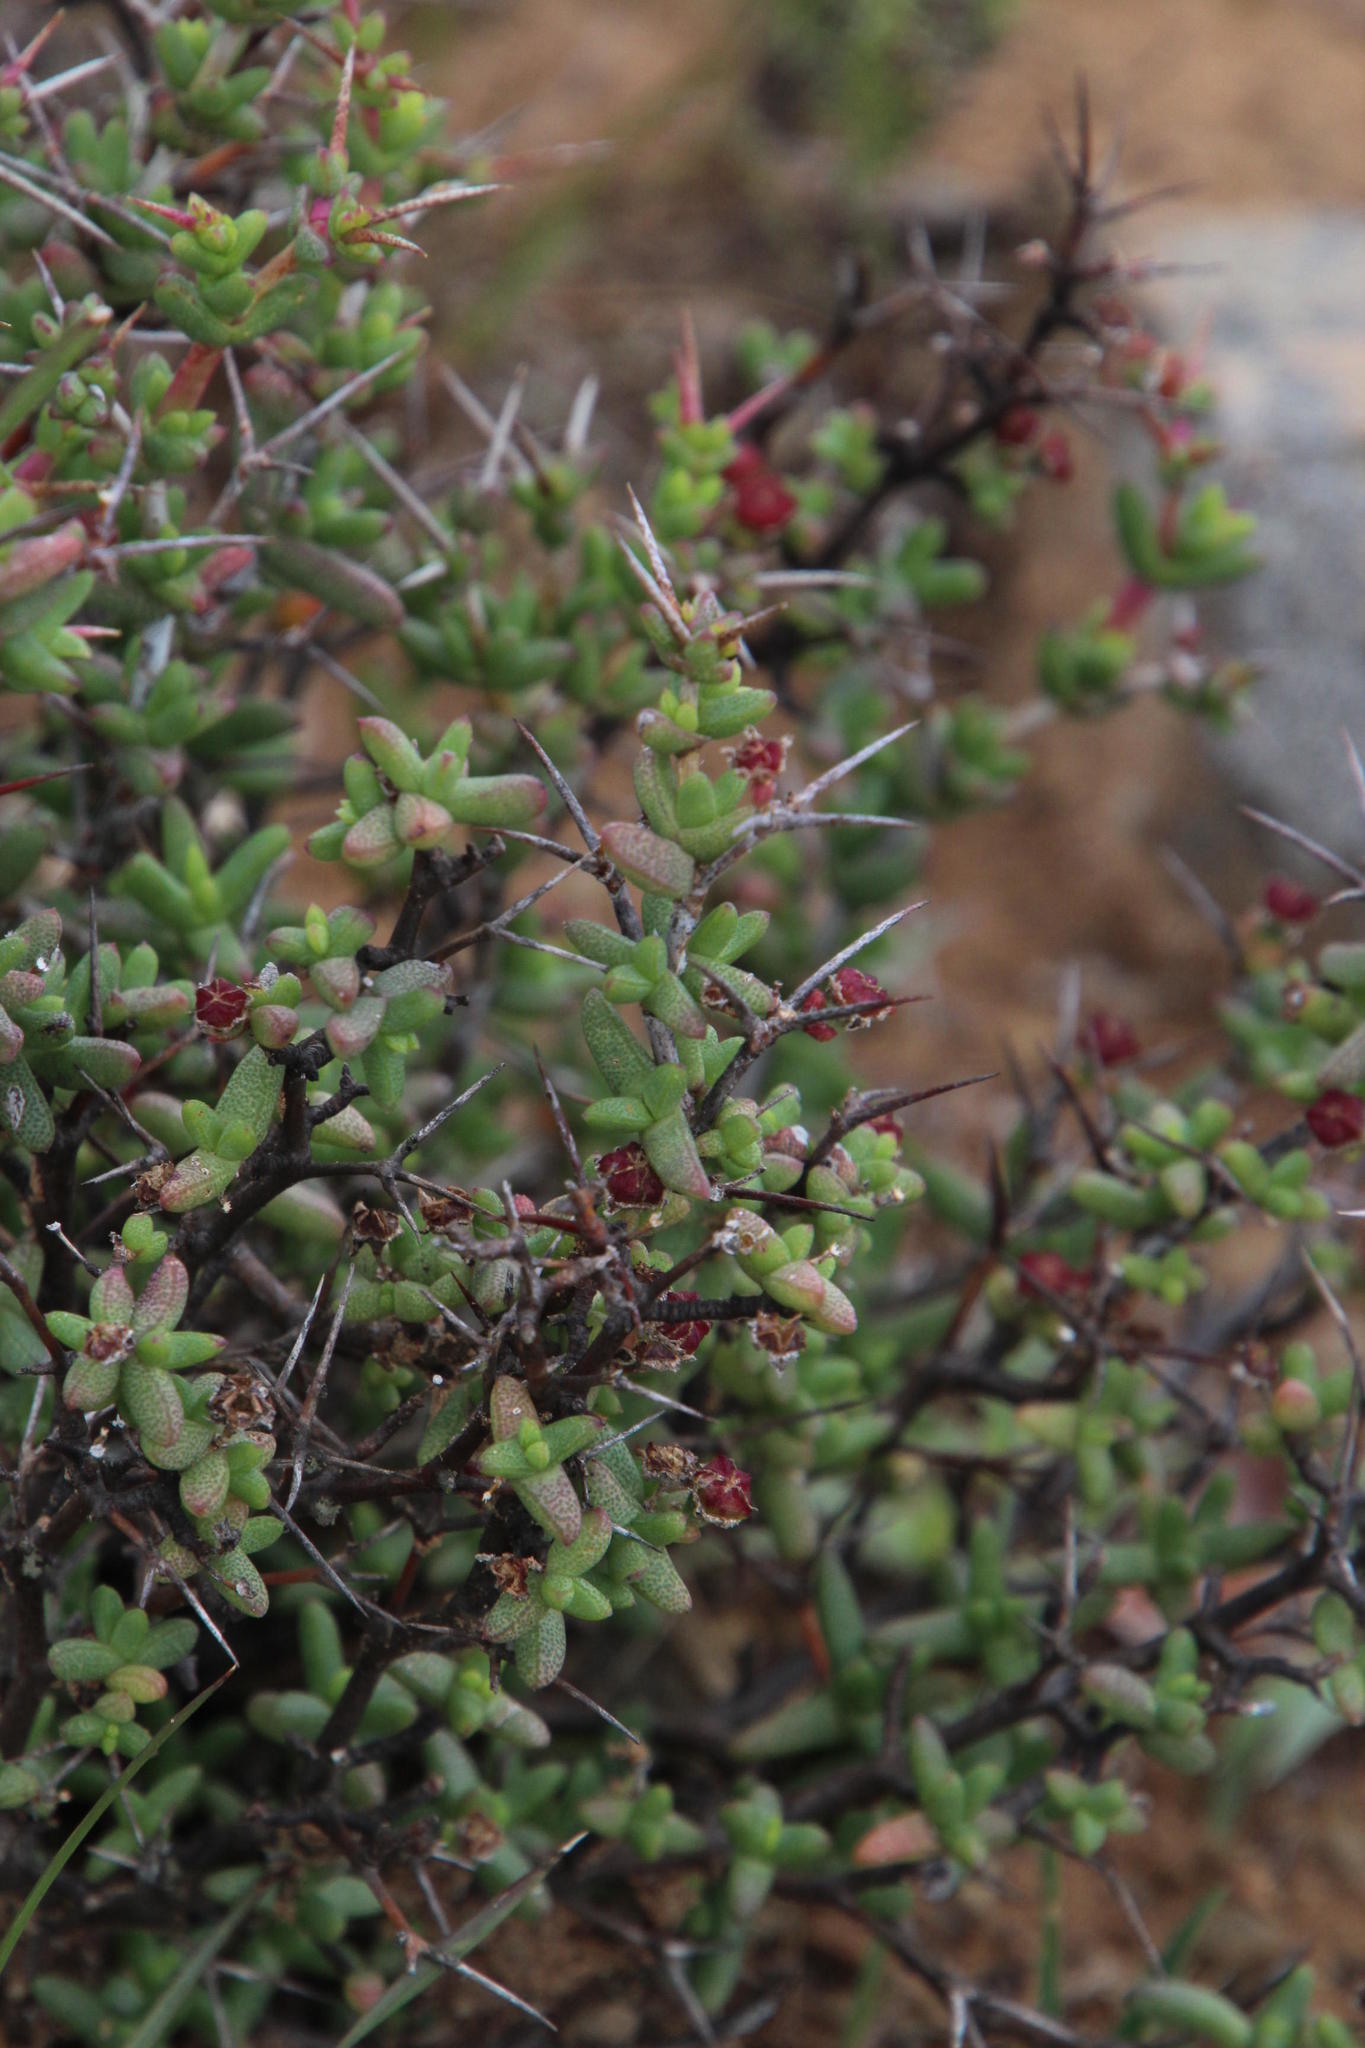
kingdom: Plantae
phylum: Tracheophyta
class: Magnoliopsida
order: Caryophyllales
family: Aizoaceae
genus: Ruschia
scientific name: Ruschia cradockensis
